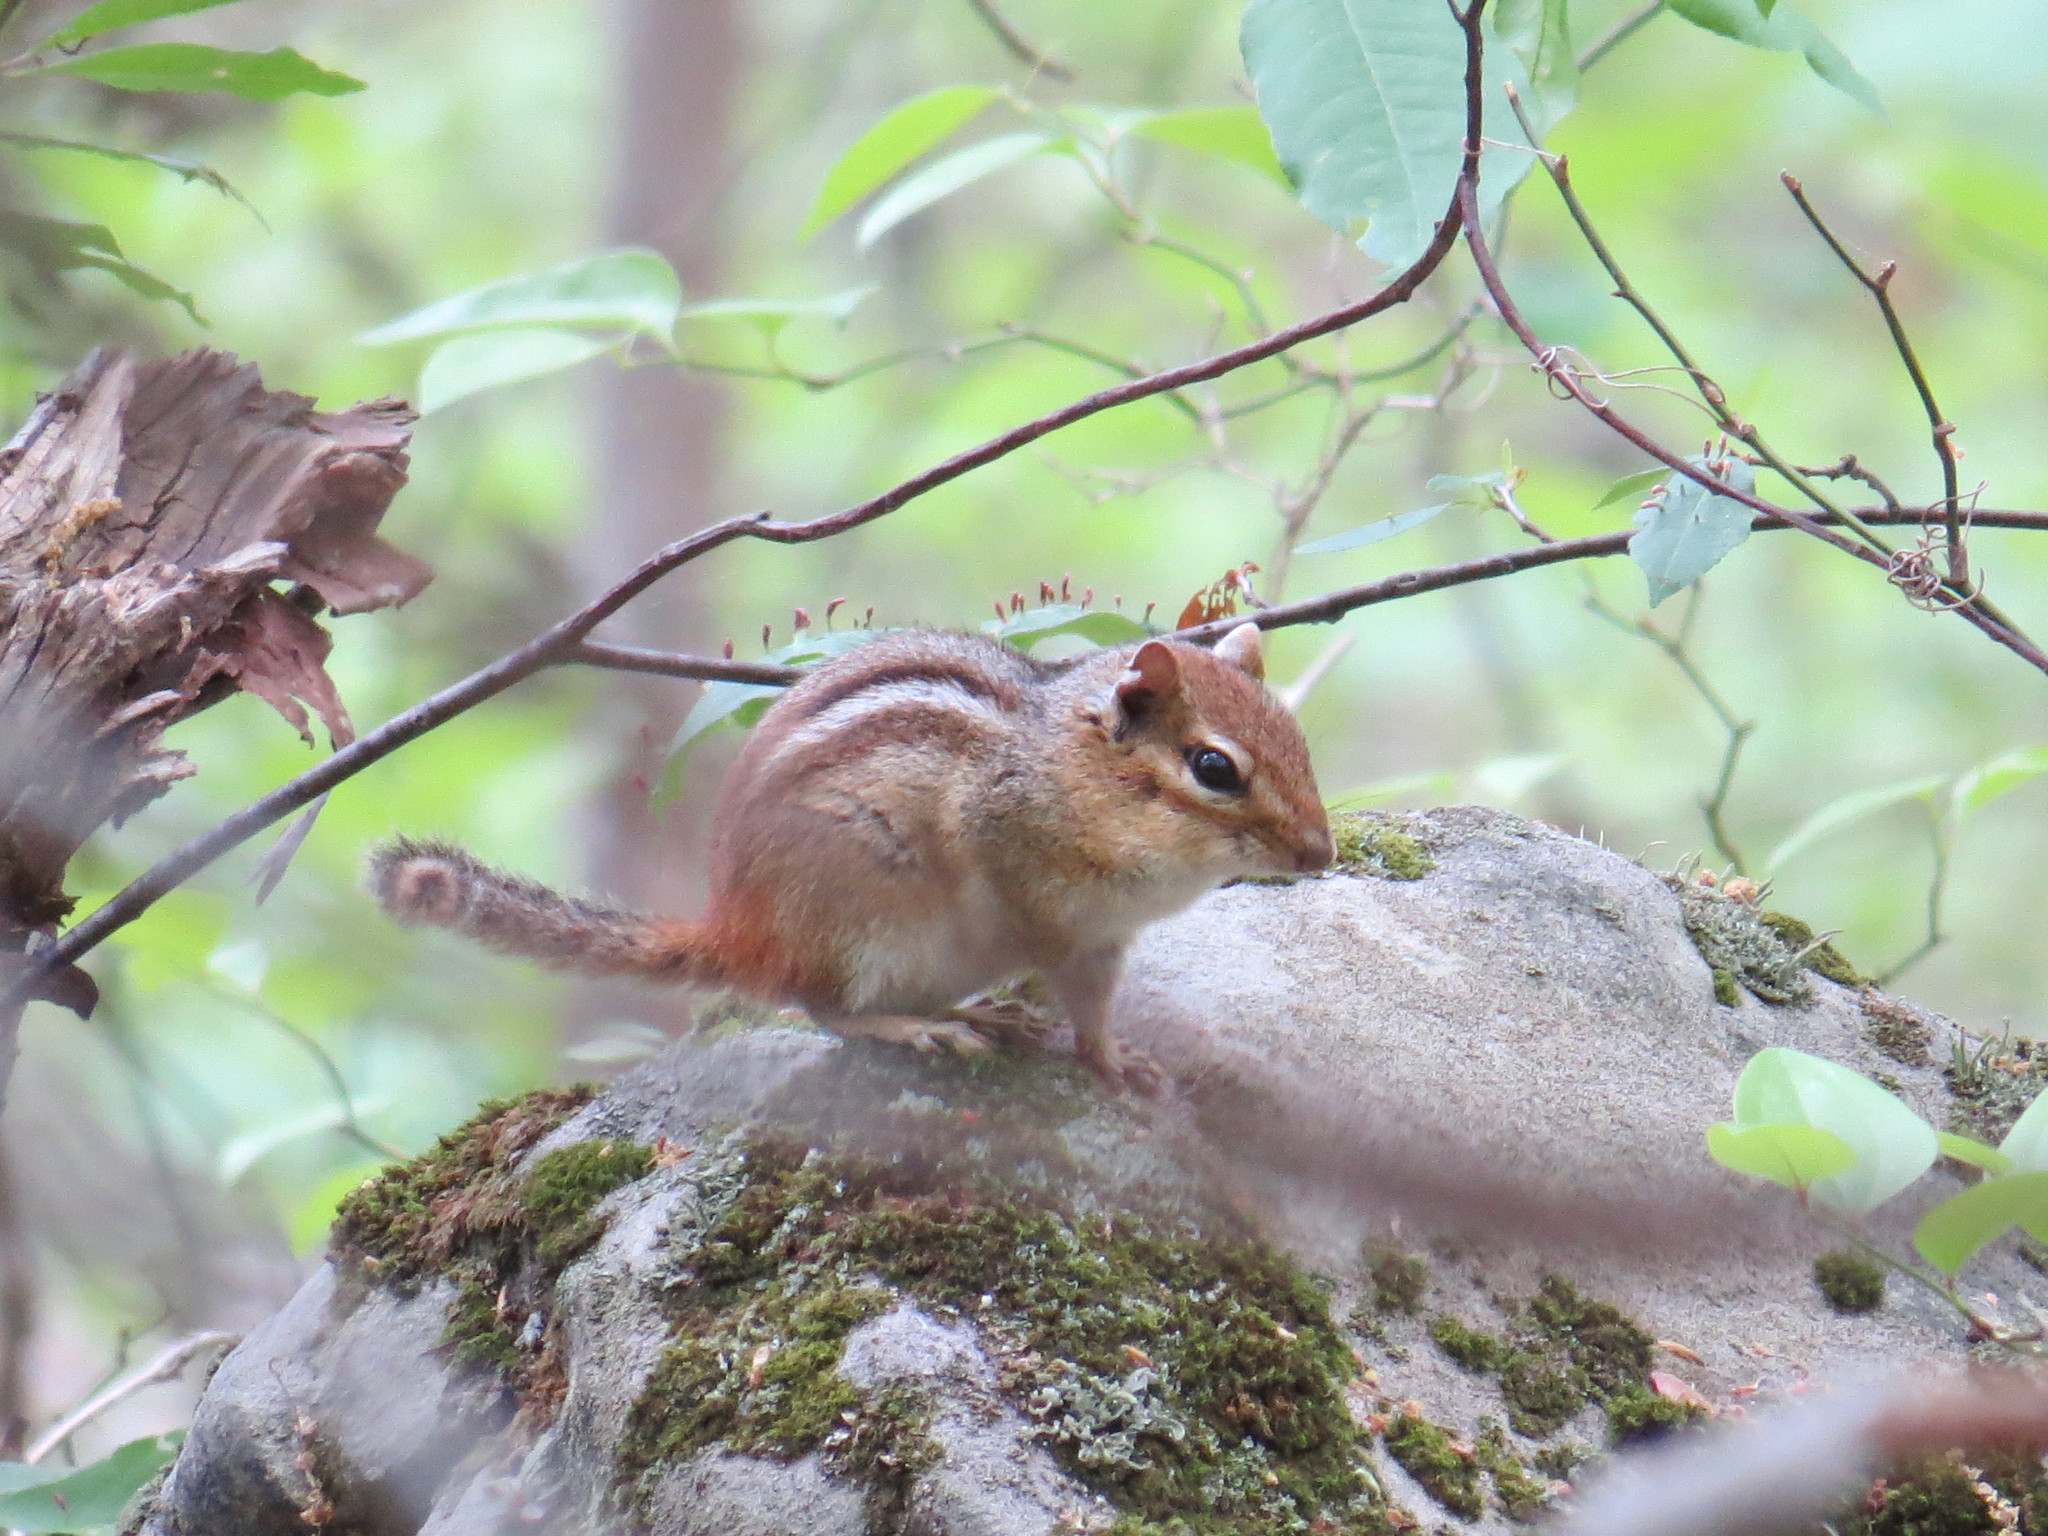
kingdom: Animalia
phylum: Chordata
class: Mammalia
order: Rodentia
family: Sciuridae
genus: Tamias
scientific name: Tamias striatus
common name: Eastern chipmunk
